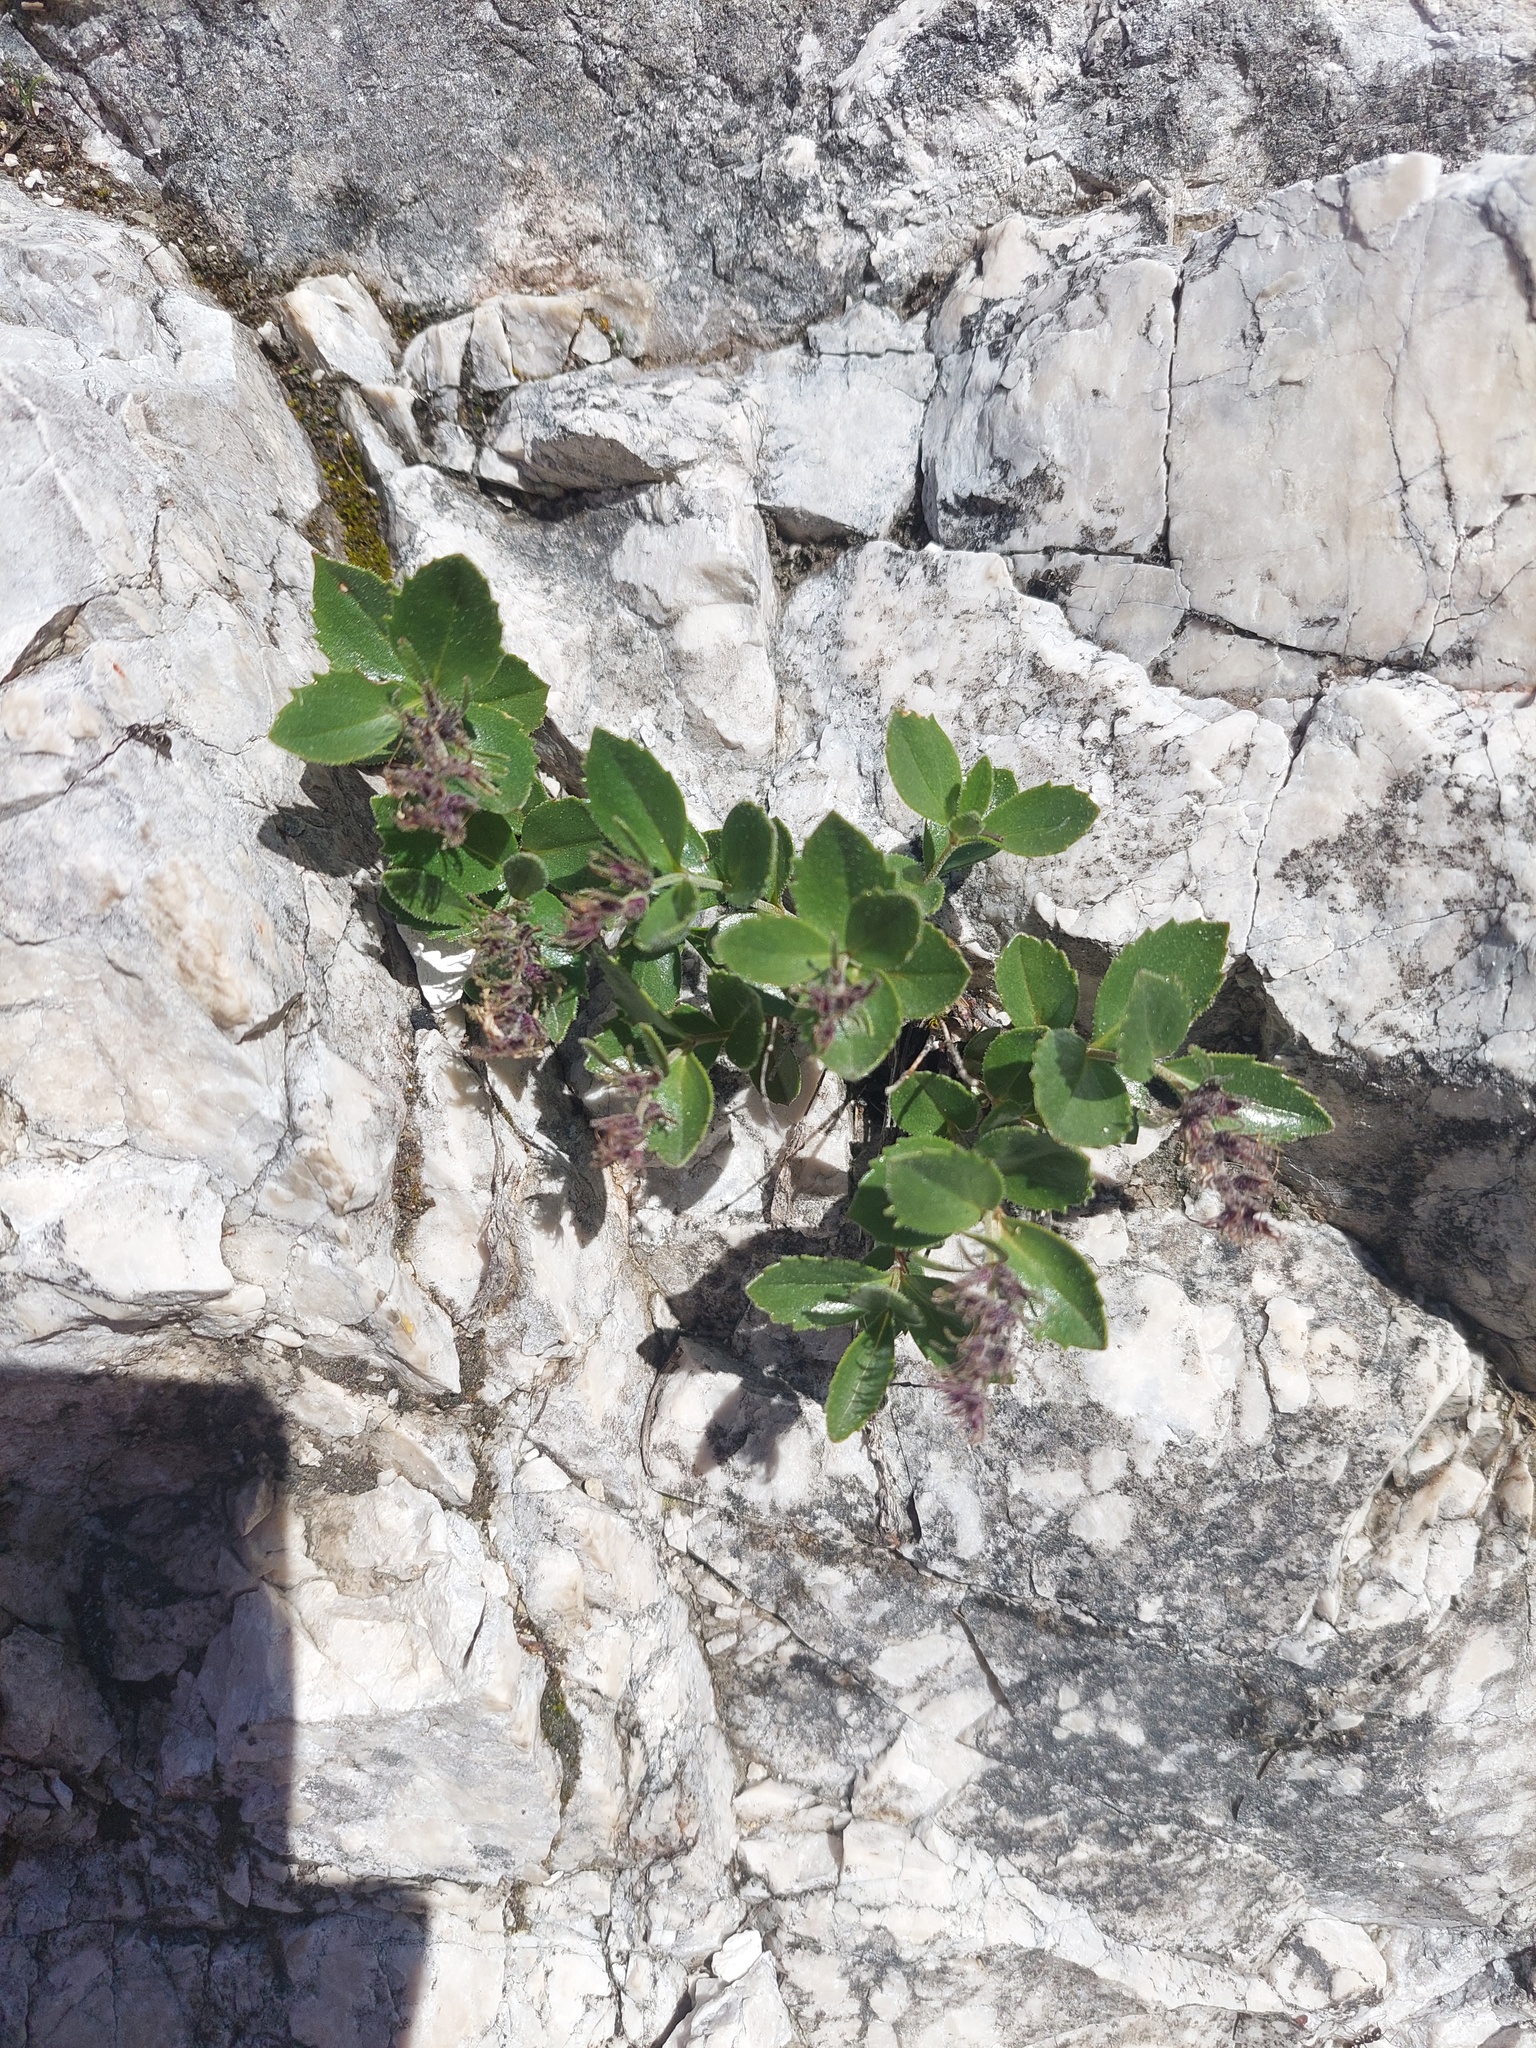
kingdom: Plantae
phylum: Tracheophyta
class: Magnoliopsida
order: Lamiales
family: Plantaginaceae
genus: Paederota
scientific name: Paederota bonarota
